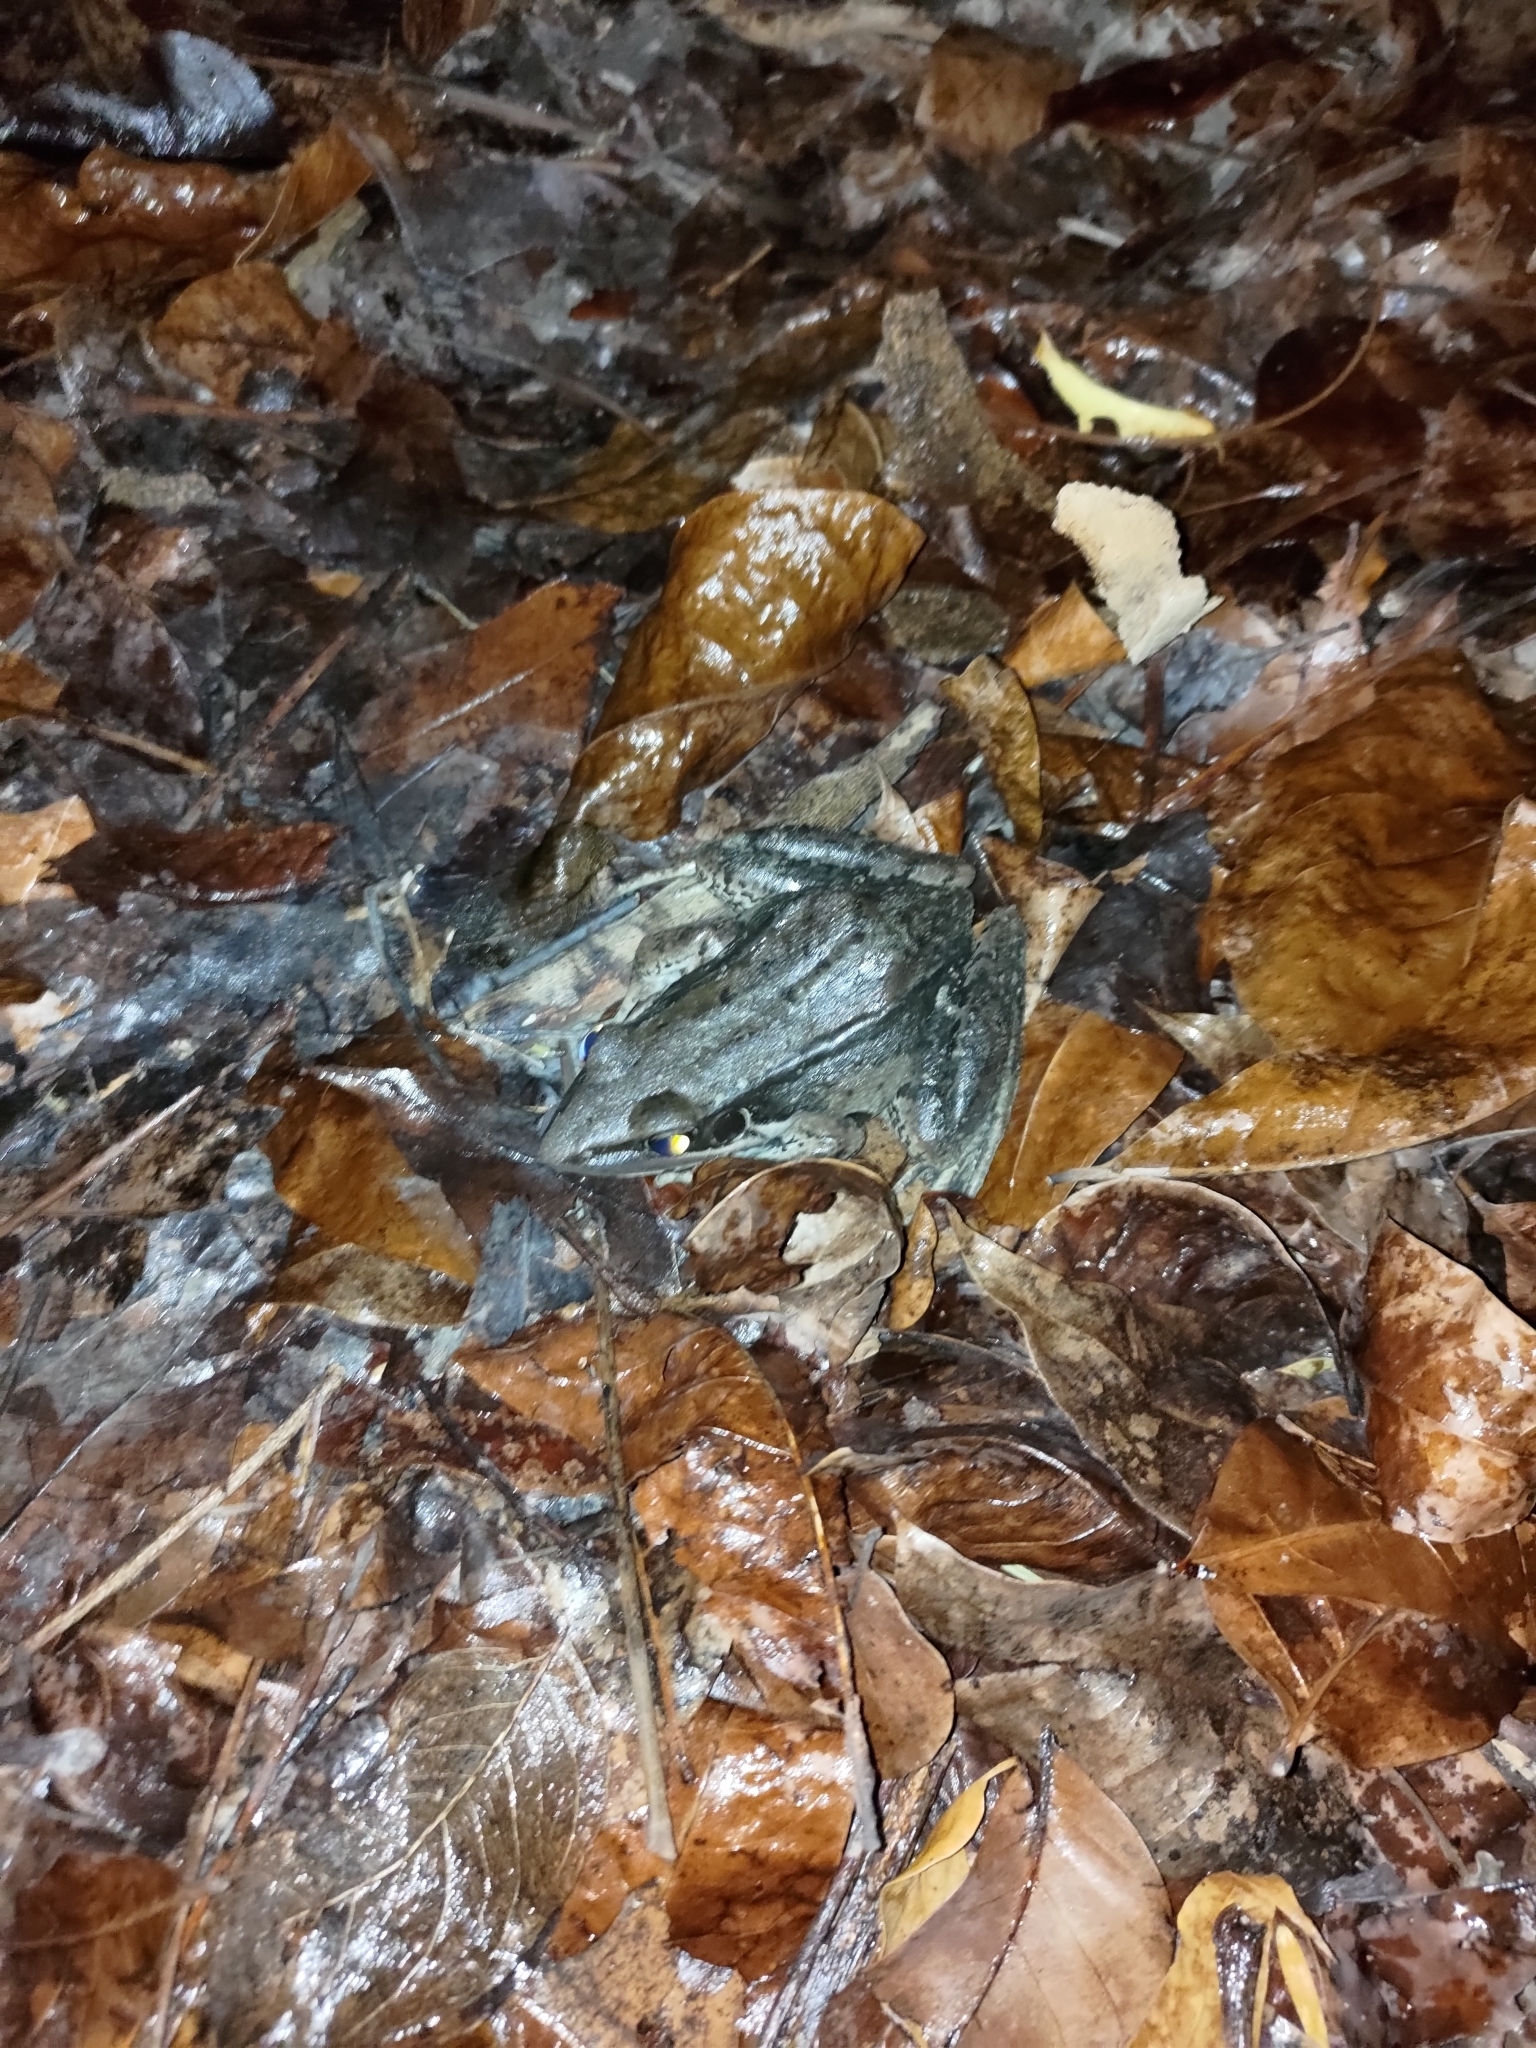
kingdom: Animalia
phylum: Chordata
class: Amphibia
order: Anura
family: Ranidae
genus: Sylvirana
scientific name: Sylvirana guentheri
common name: Guenther's amoy frog
